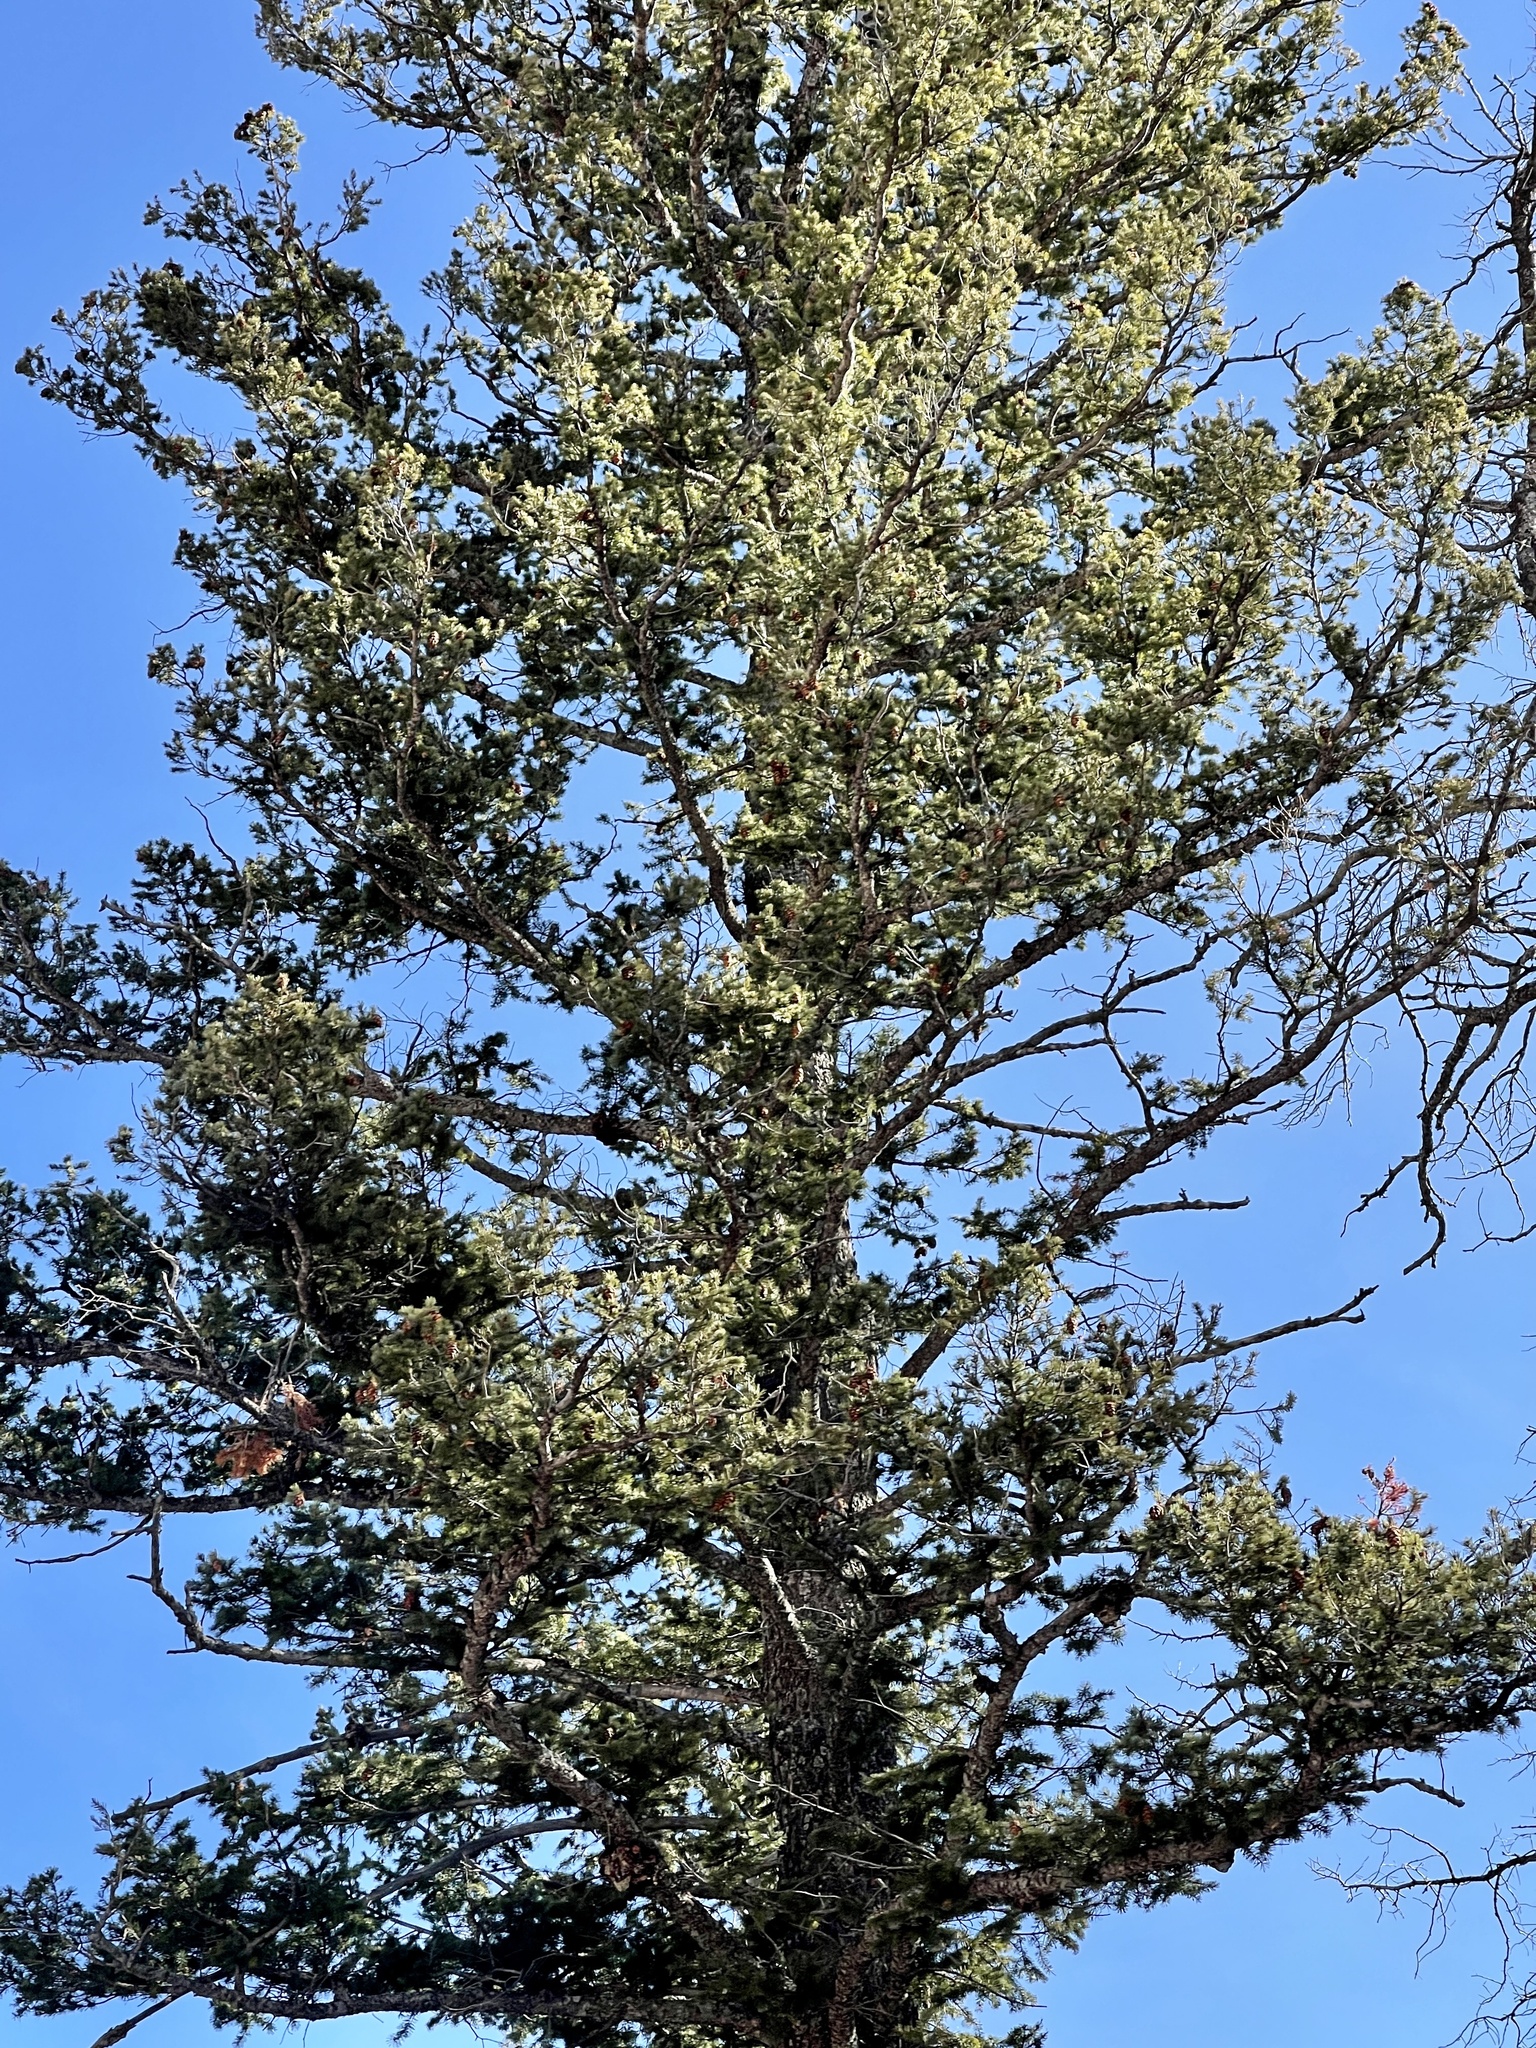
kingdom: Plantae
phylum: Tracheophyta
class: Pinopsida
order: Pinales
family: Pinaceae
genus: Picea
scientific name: Picea engelmannii
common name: Engelmann spruce
